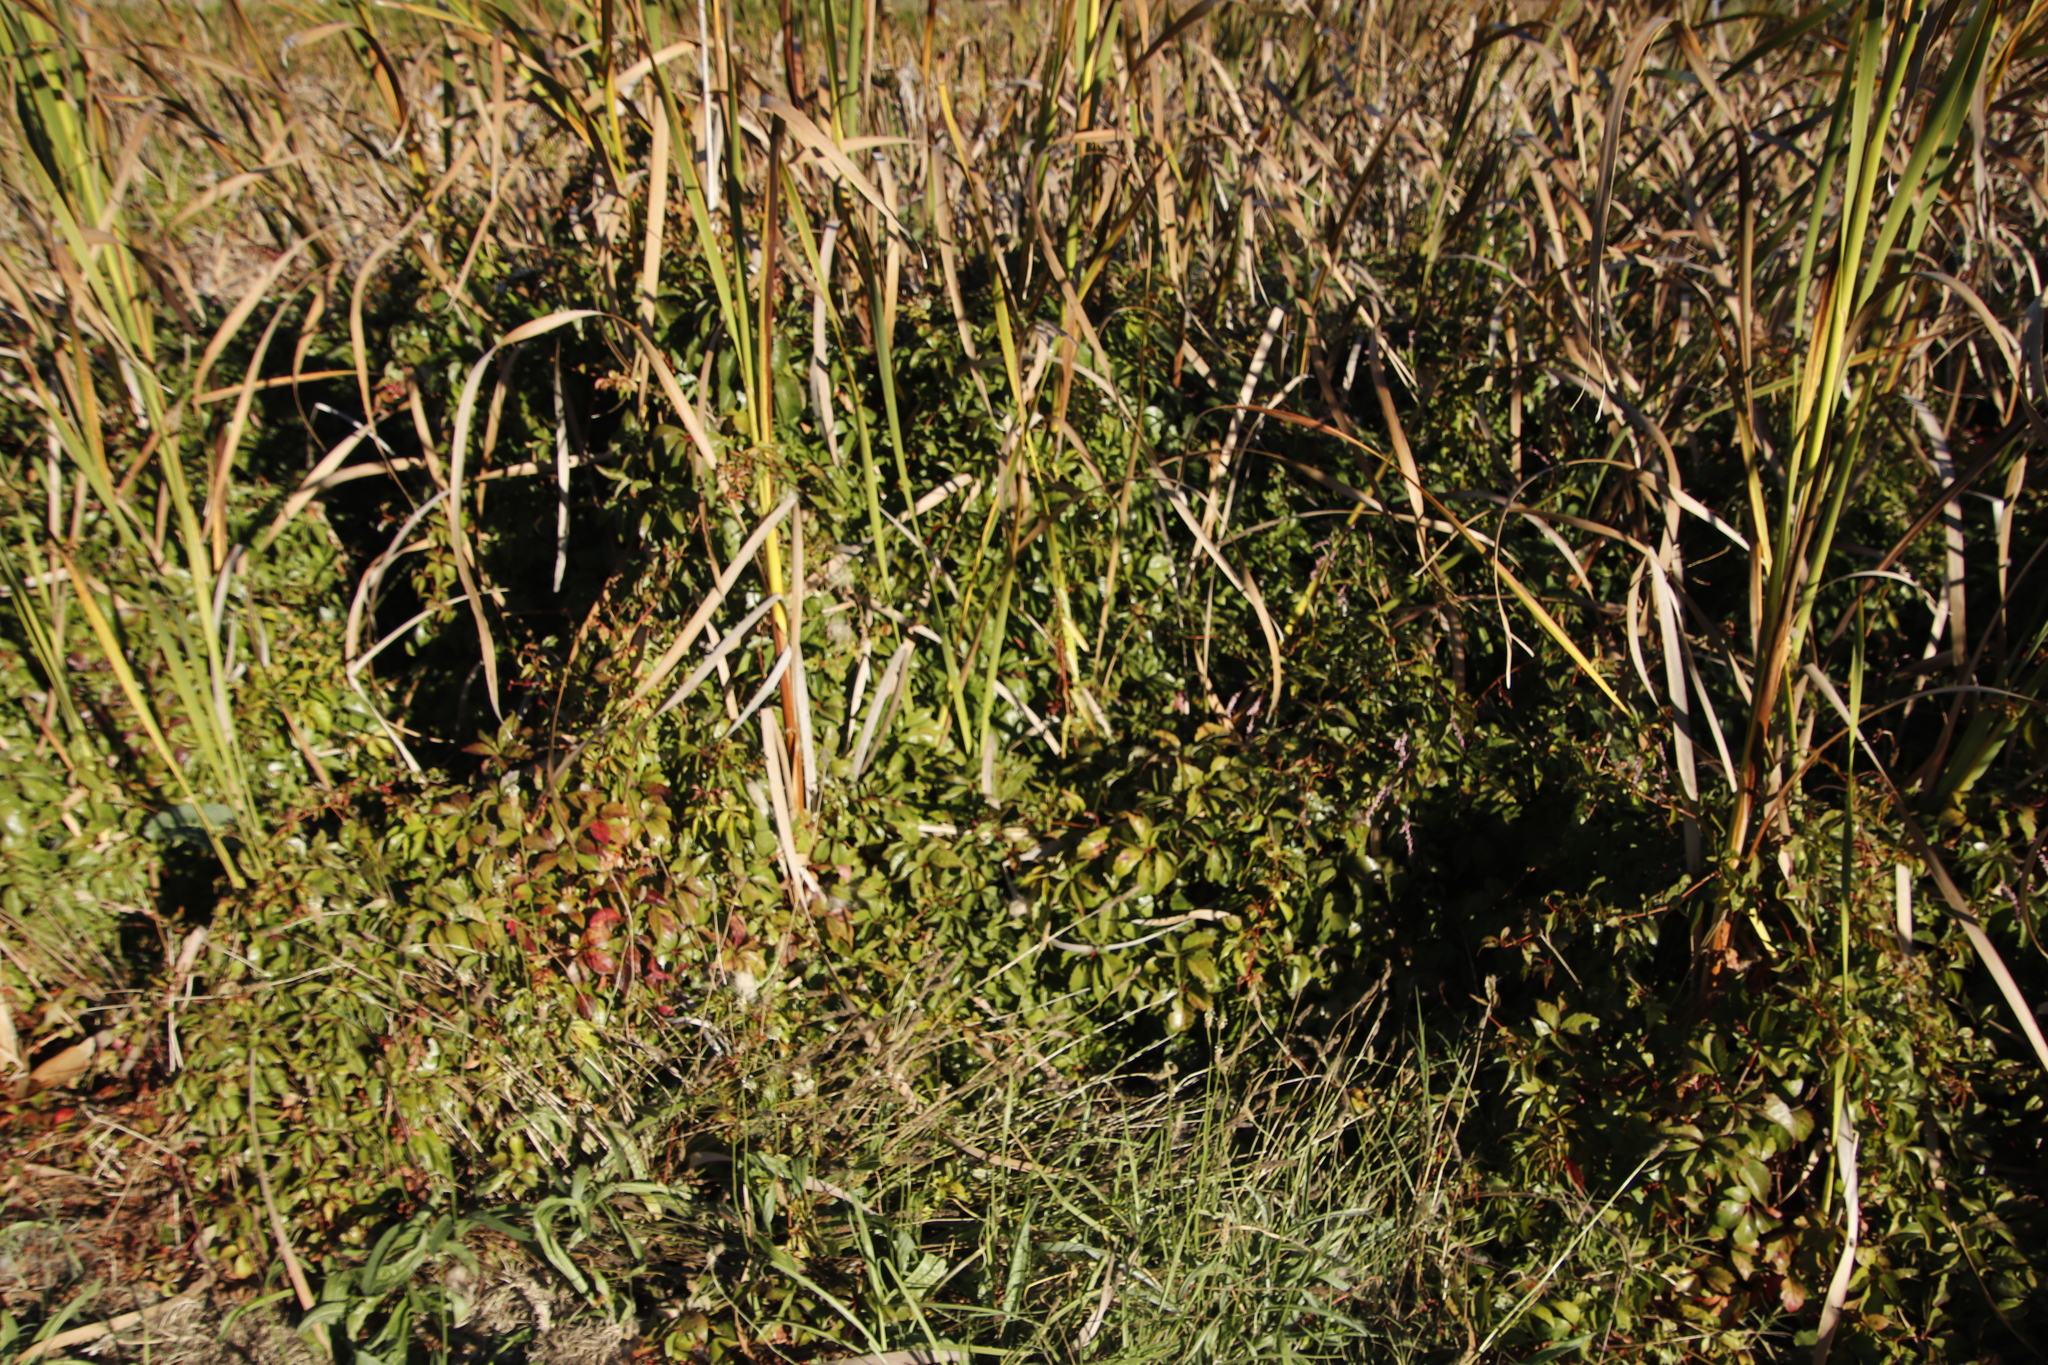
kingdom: Plantae
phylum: Tracheophyta
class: Magnoliopsida
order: Vitales
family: Vitaceae
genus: Parthenocissus
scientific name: Parthenocissus quinquefolia
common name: Virginia-creeper
